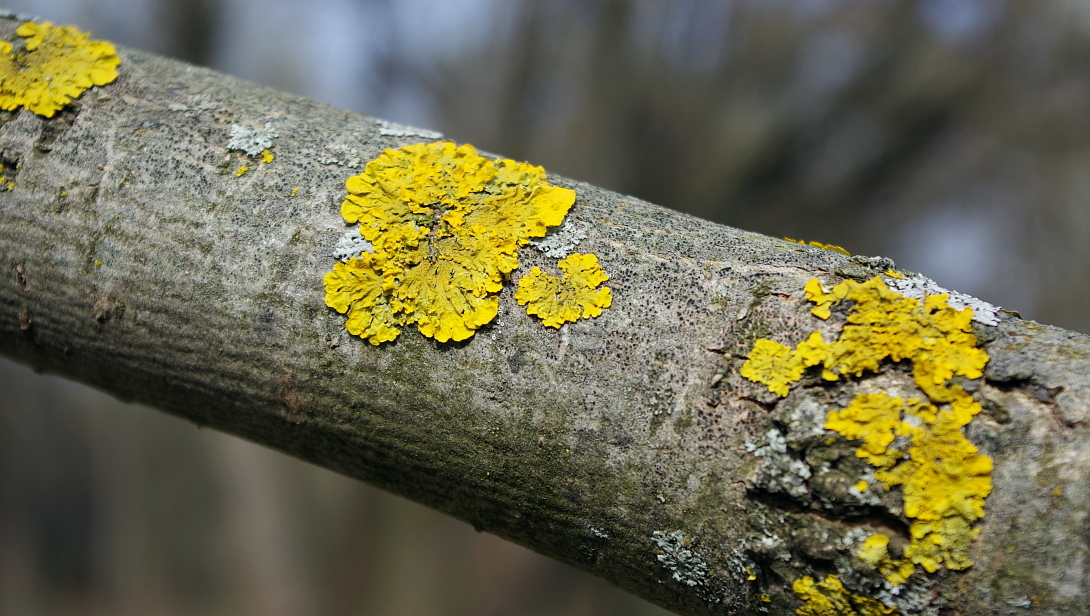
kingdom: Fungi
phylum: Ascomycota
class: Lecanoromycetes
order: Teloschistales
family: Teloschistaceae
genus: Xanthoria
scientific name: Xanthoria parietina
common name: Common orange lichen
